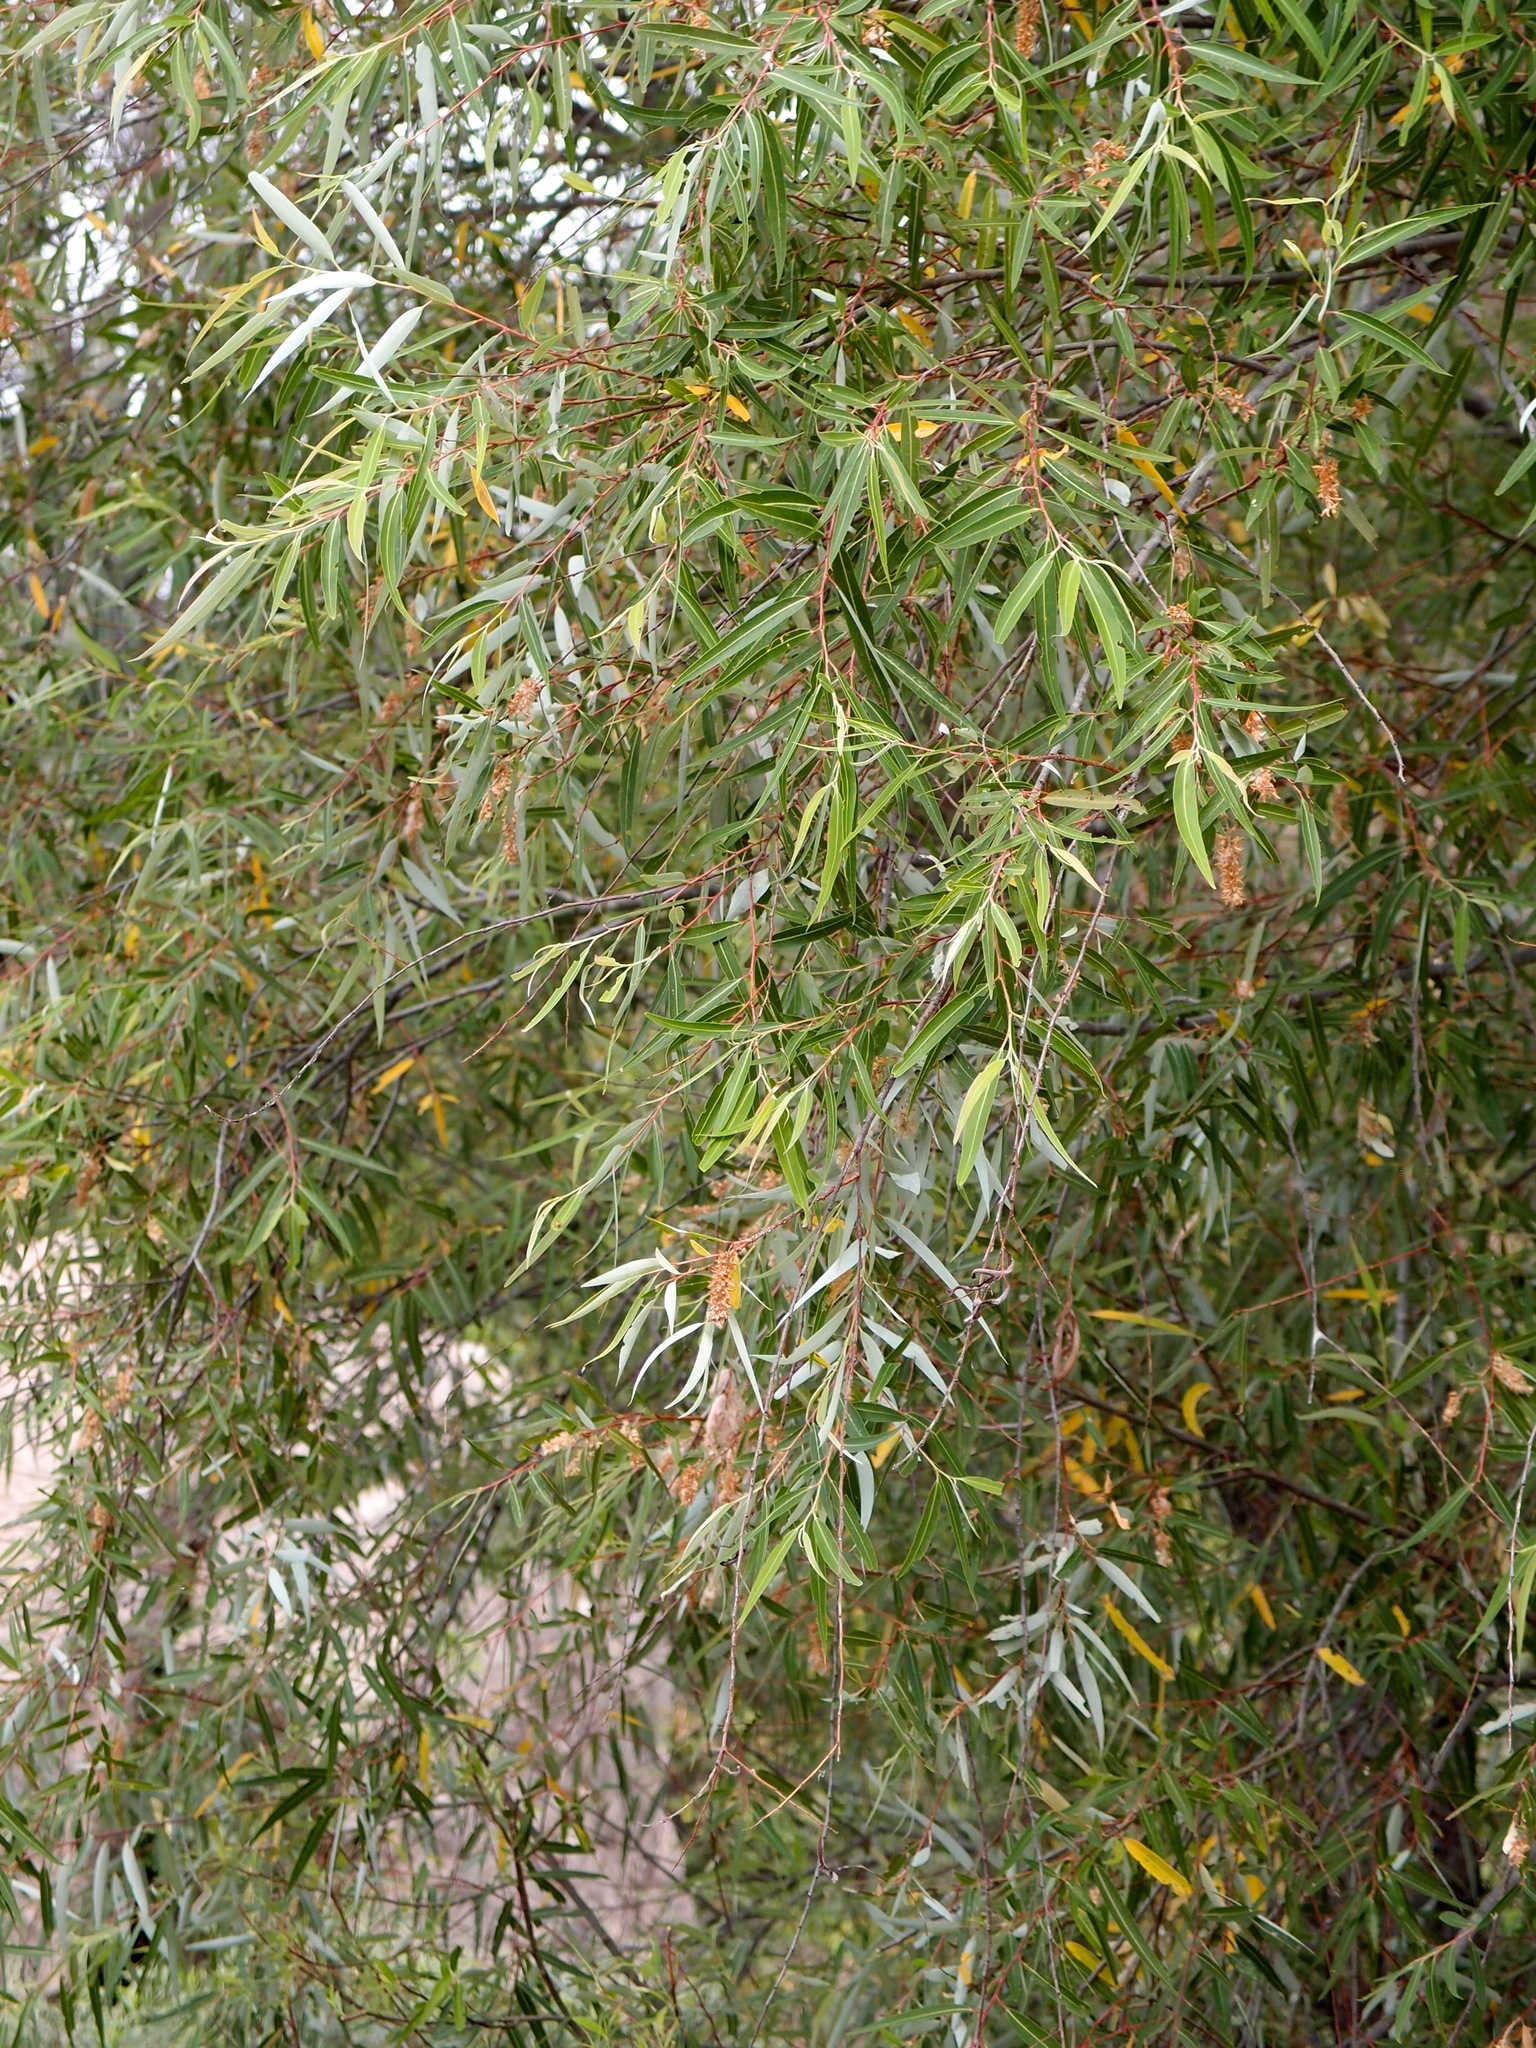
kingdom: Plantae
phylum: Tracheophyta
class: Magnoliopsida
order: Malpighiales
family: Salicaceae
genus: Salix
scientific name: Salix bonplandiana
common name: Bonpland’s willow
